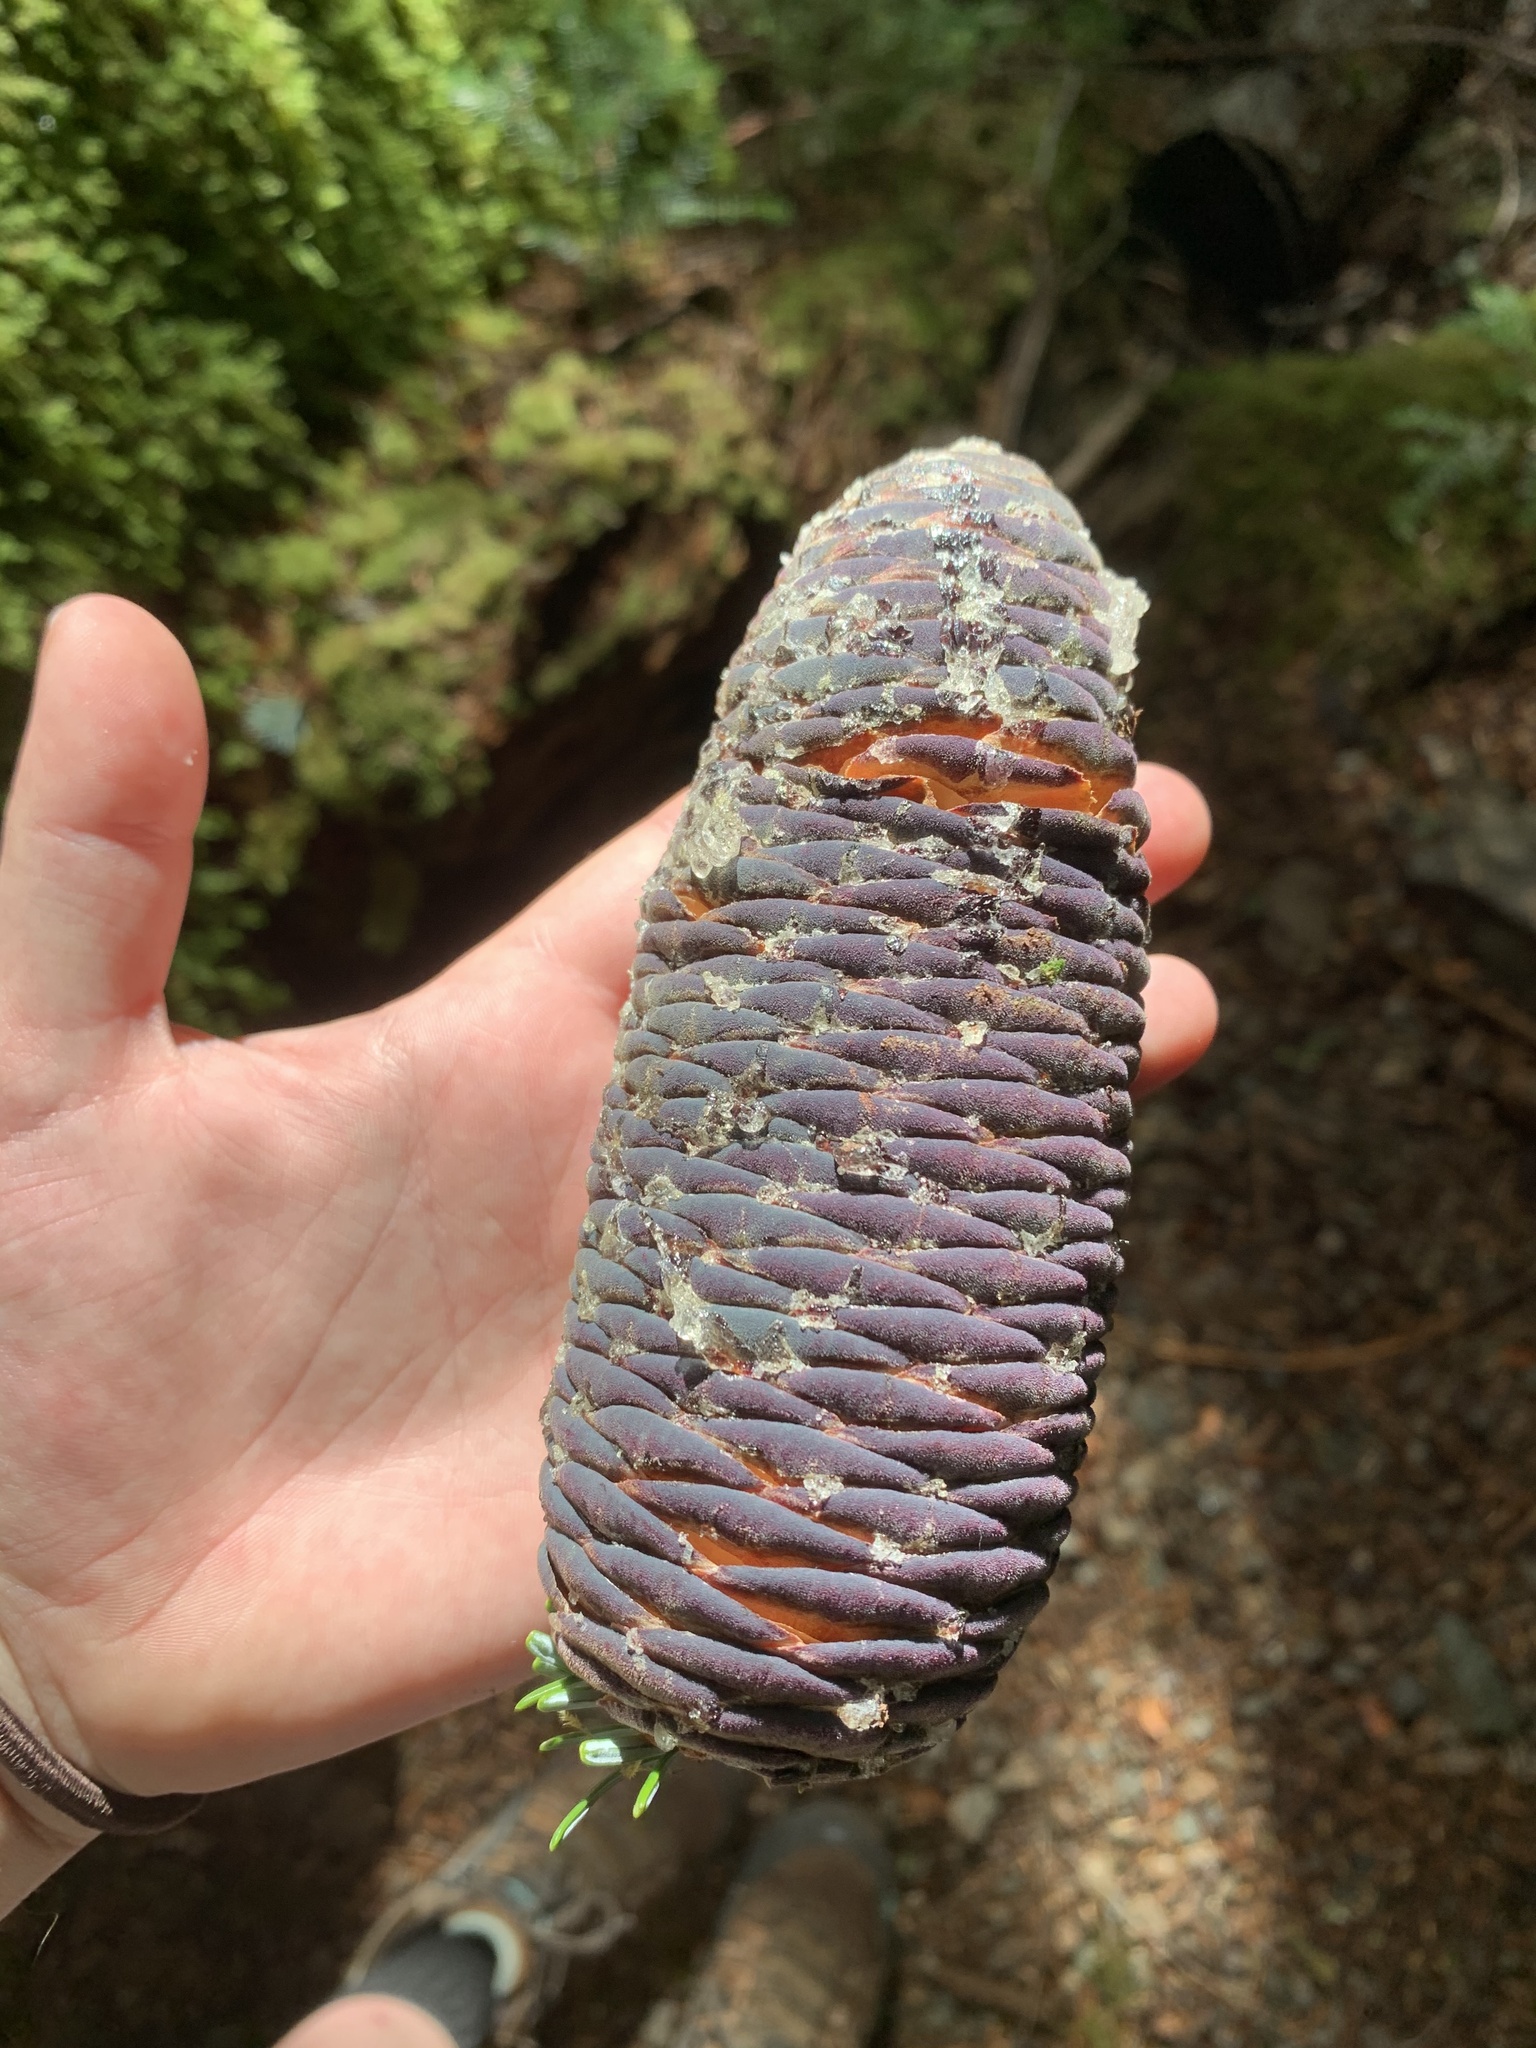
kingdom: Plantae
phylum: Tracheophyta
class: Pinopsida
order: Pinales
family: Pinaceae
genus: Abies
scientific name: Abies amabilis
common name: Pacific silver fir
